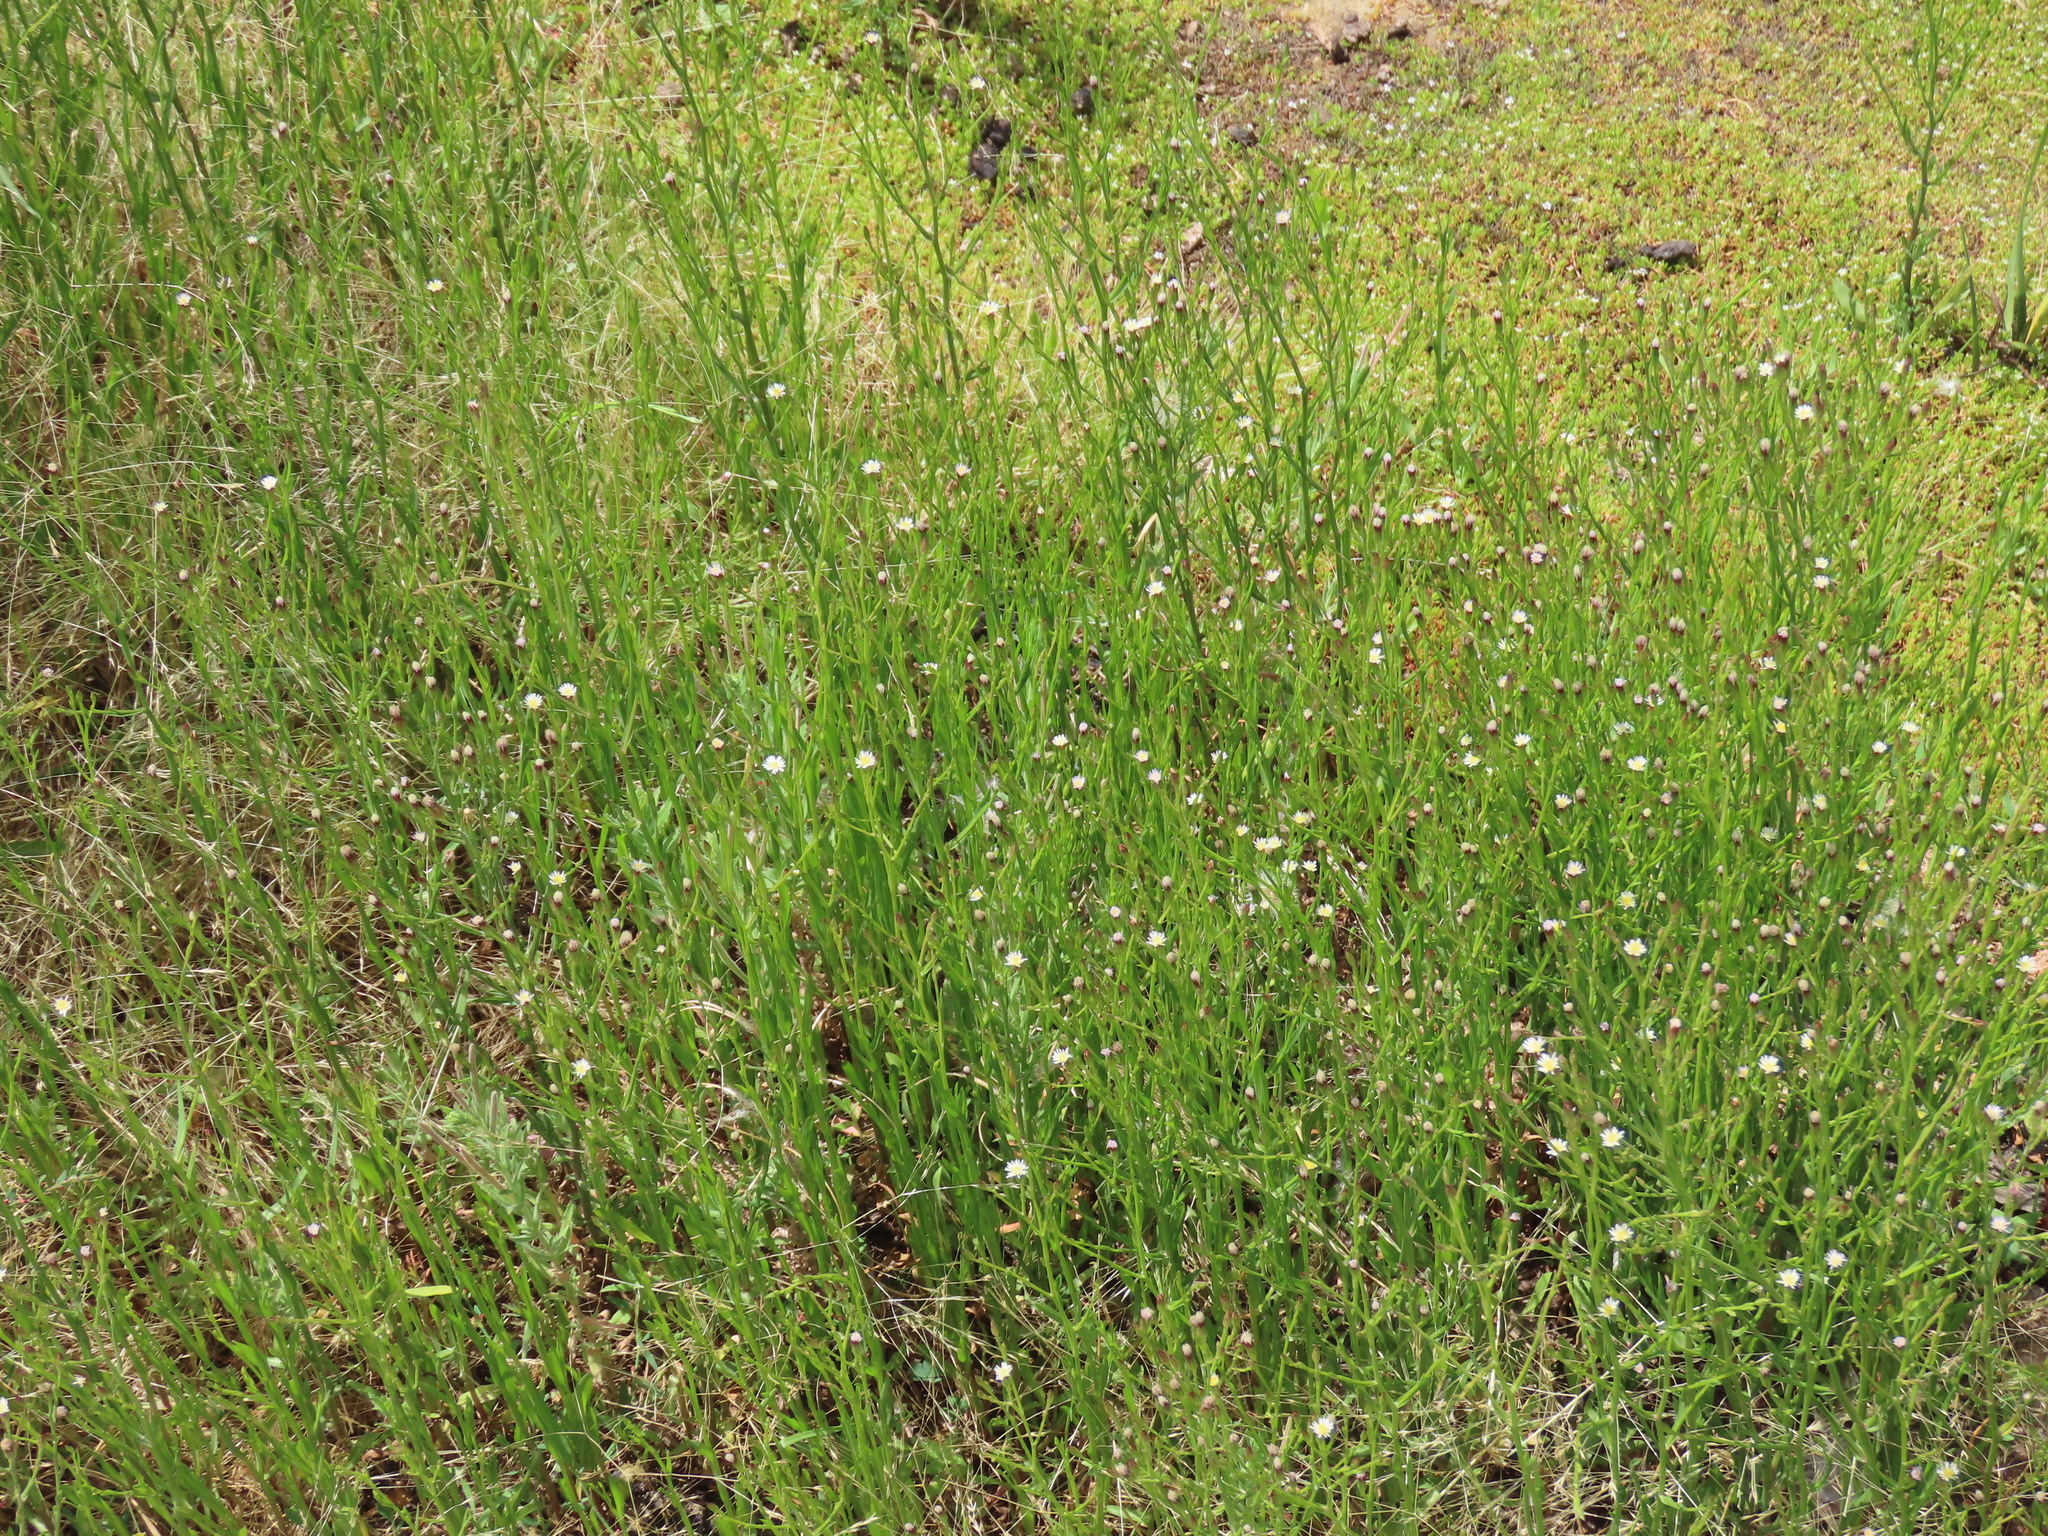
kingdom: Plantae
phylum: Tracheophyta
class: Magnoliopsida
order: Asterales
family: Asteraceae
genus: Symphyotrichum
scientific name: Symphyotrichum subulatum
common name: Annual saltmarsh aster
